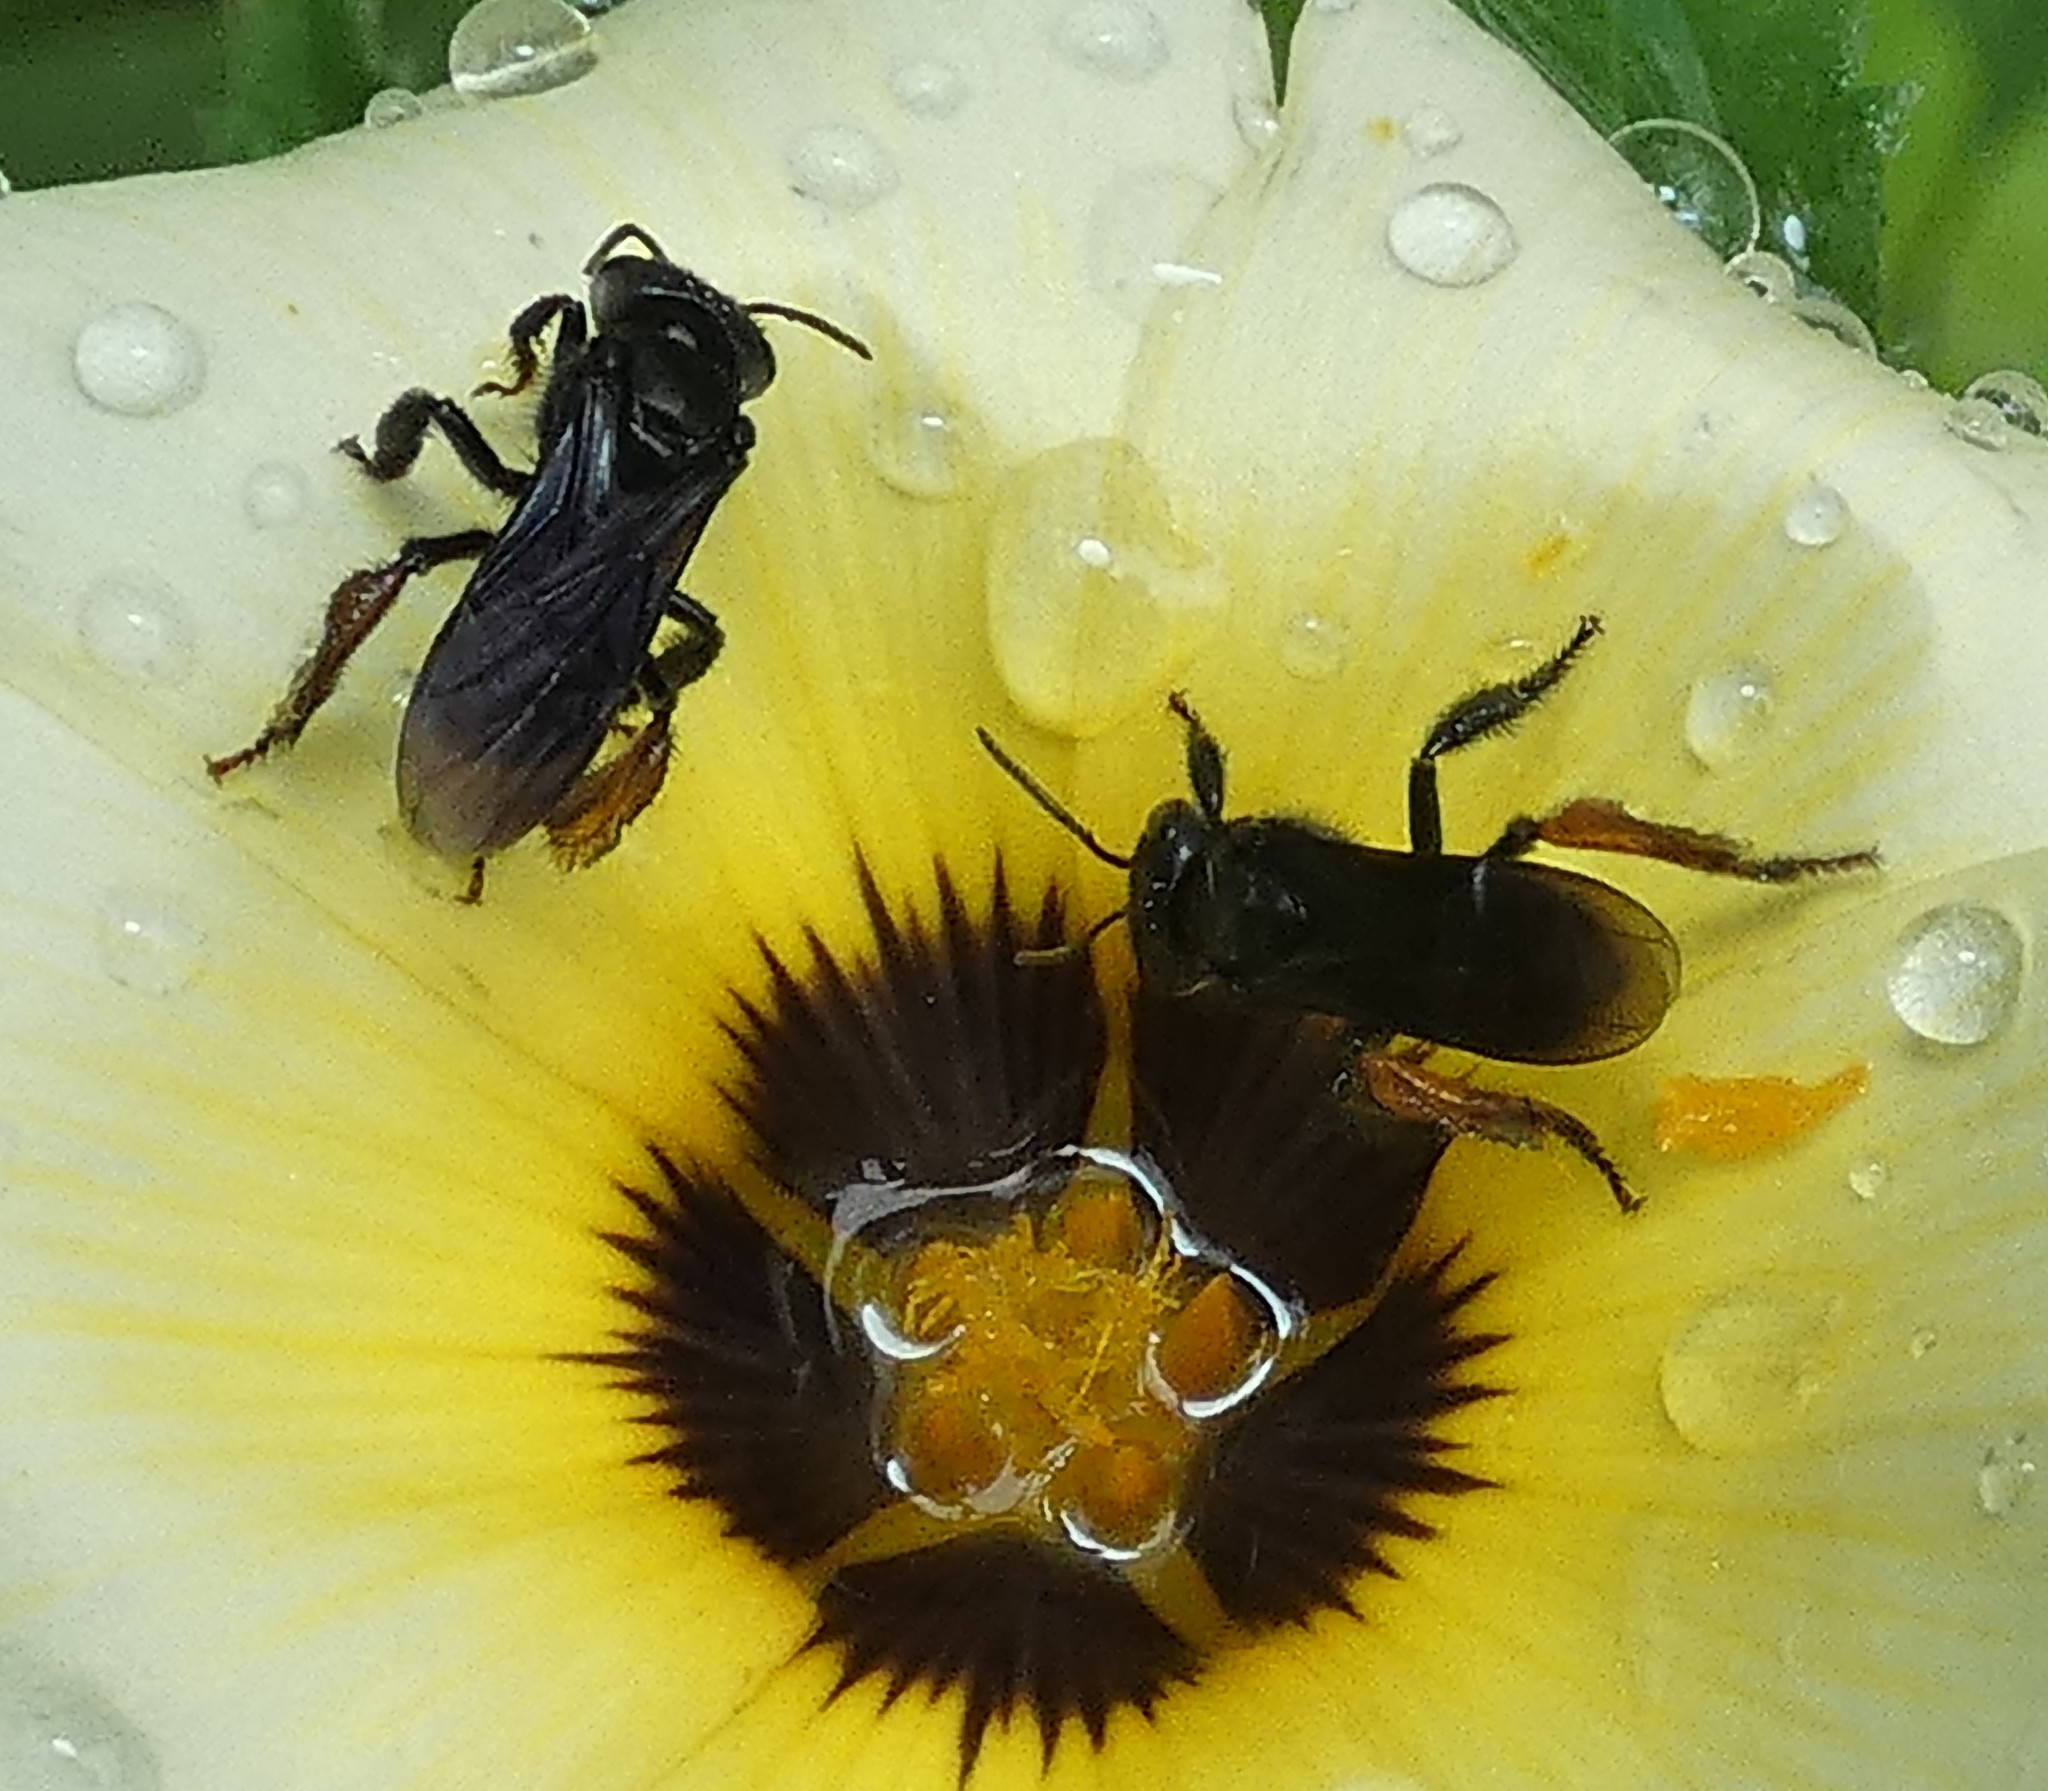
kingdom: Animalia
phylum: Arthropoda
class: Insecta
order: Hymenoptera
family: Apidae
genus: Trigona
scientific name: Trigona spinipes
